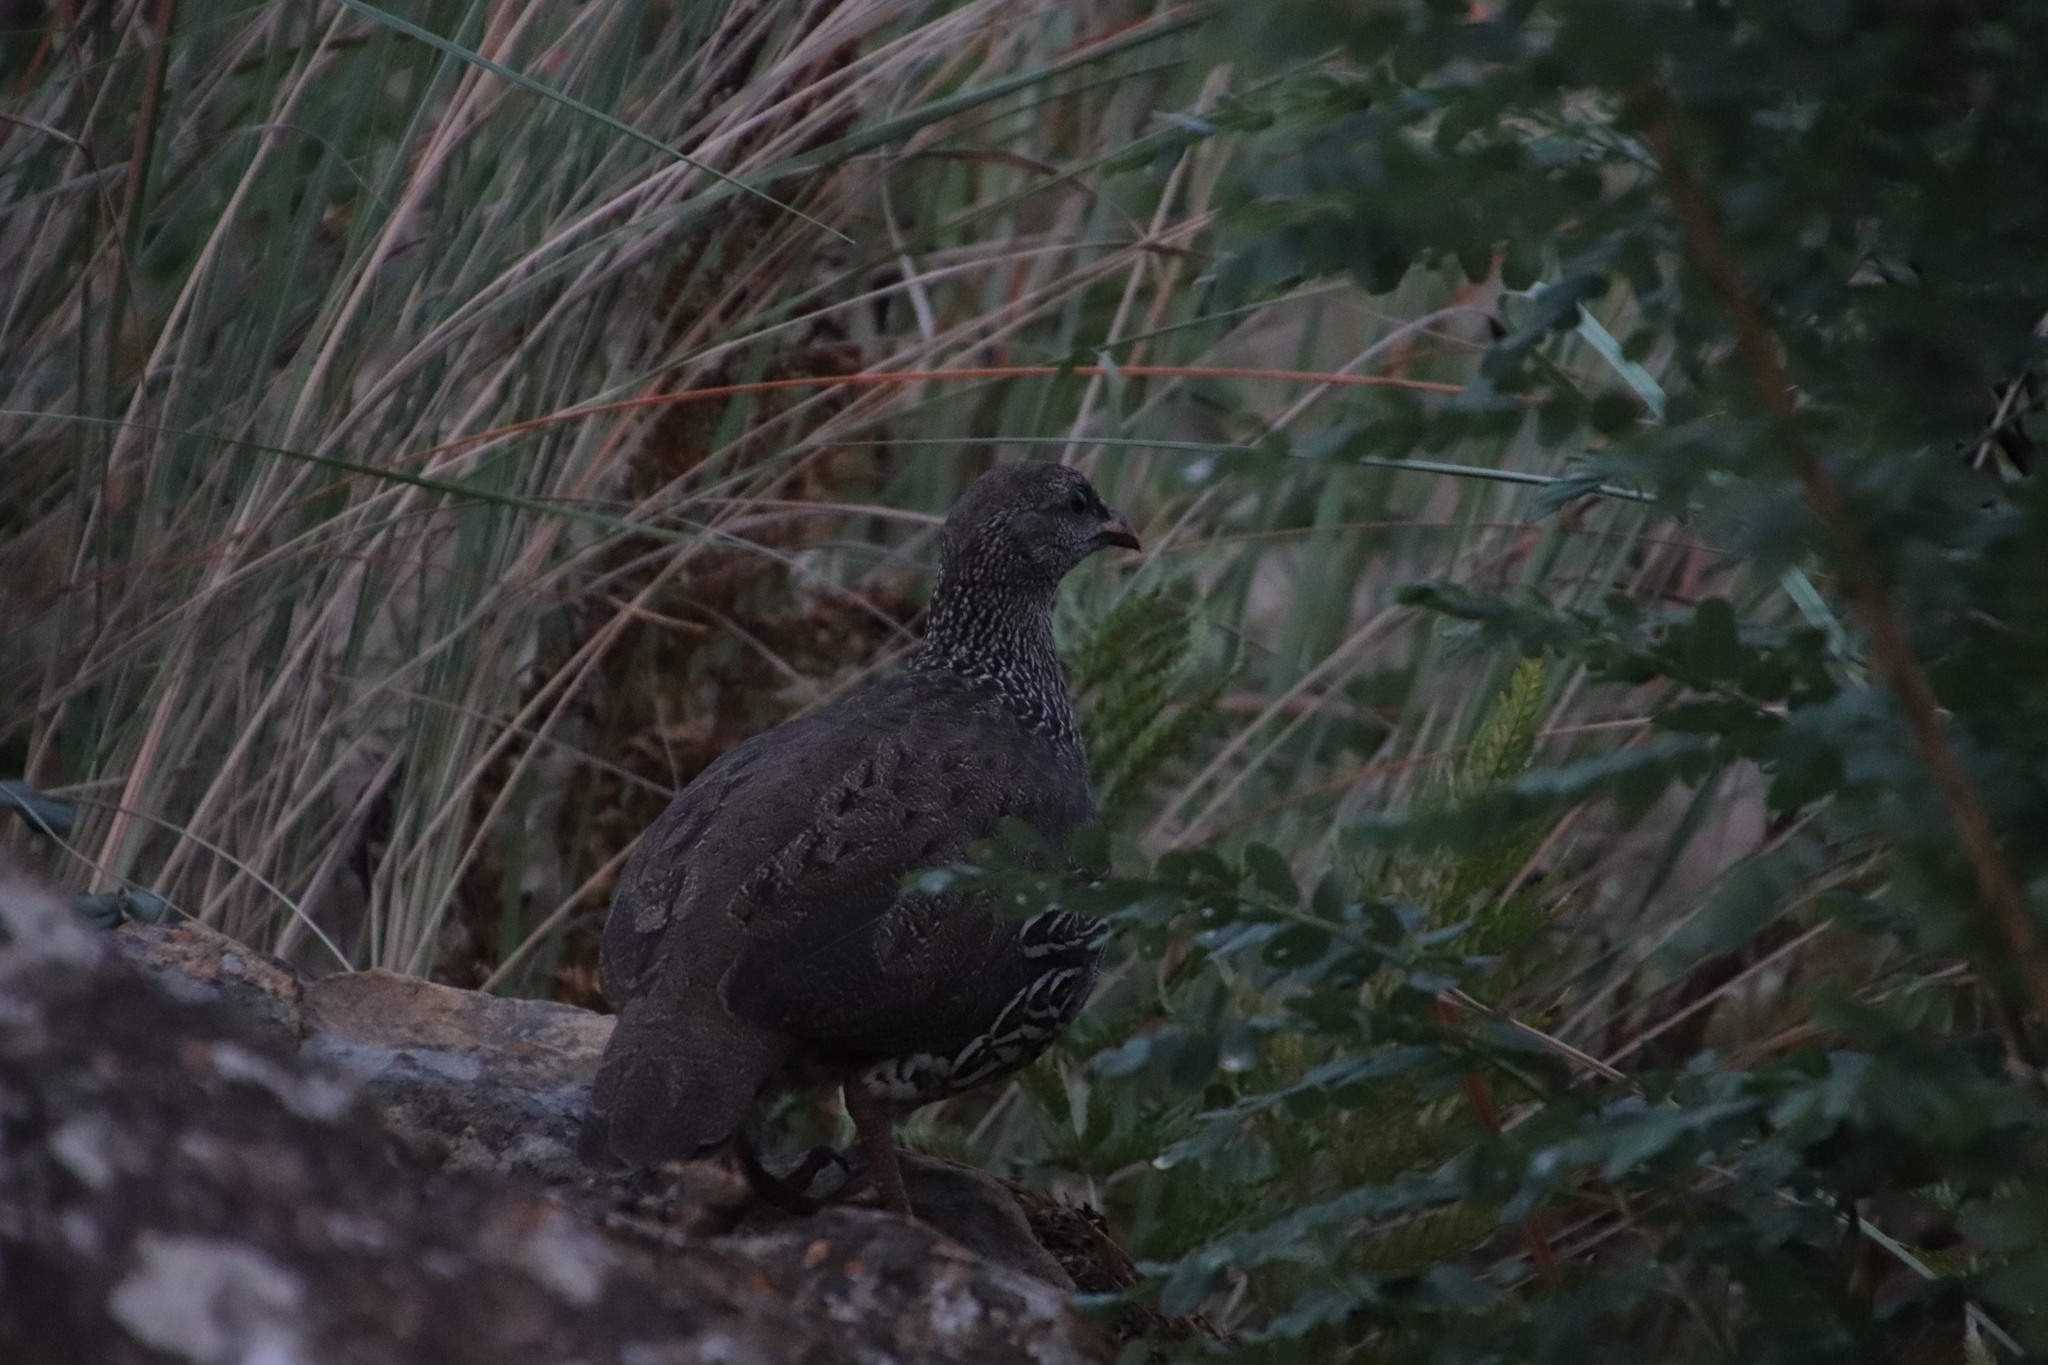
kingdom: Animalia
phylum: Chordata
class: Aves
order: Galliformes
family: Phasianidae
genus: Pternistis
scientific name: Pternistis natalensis
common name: Natal spurfowl
